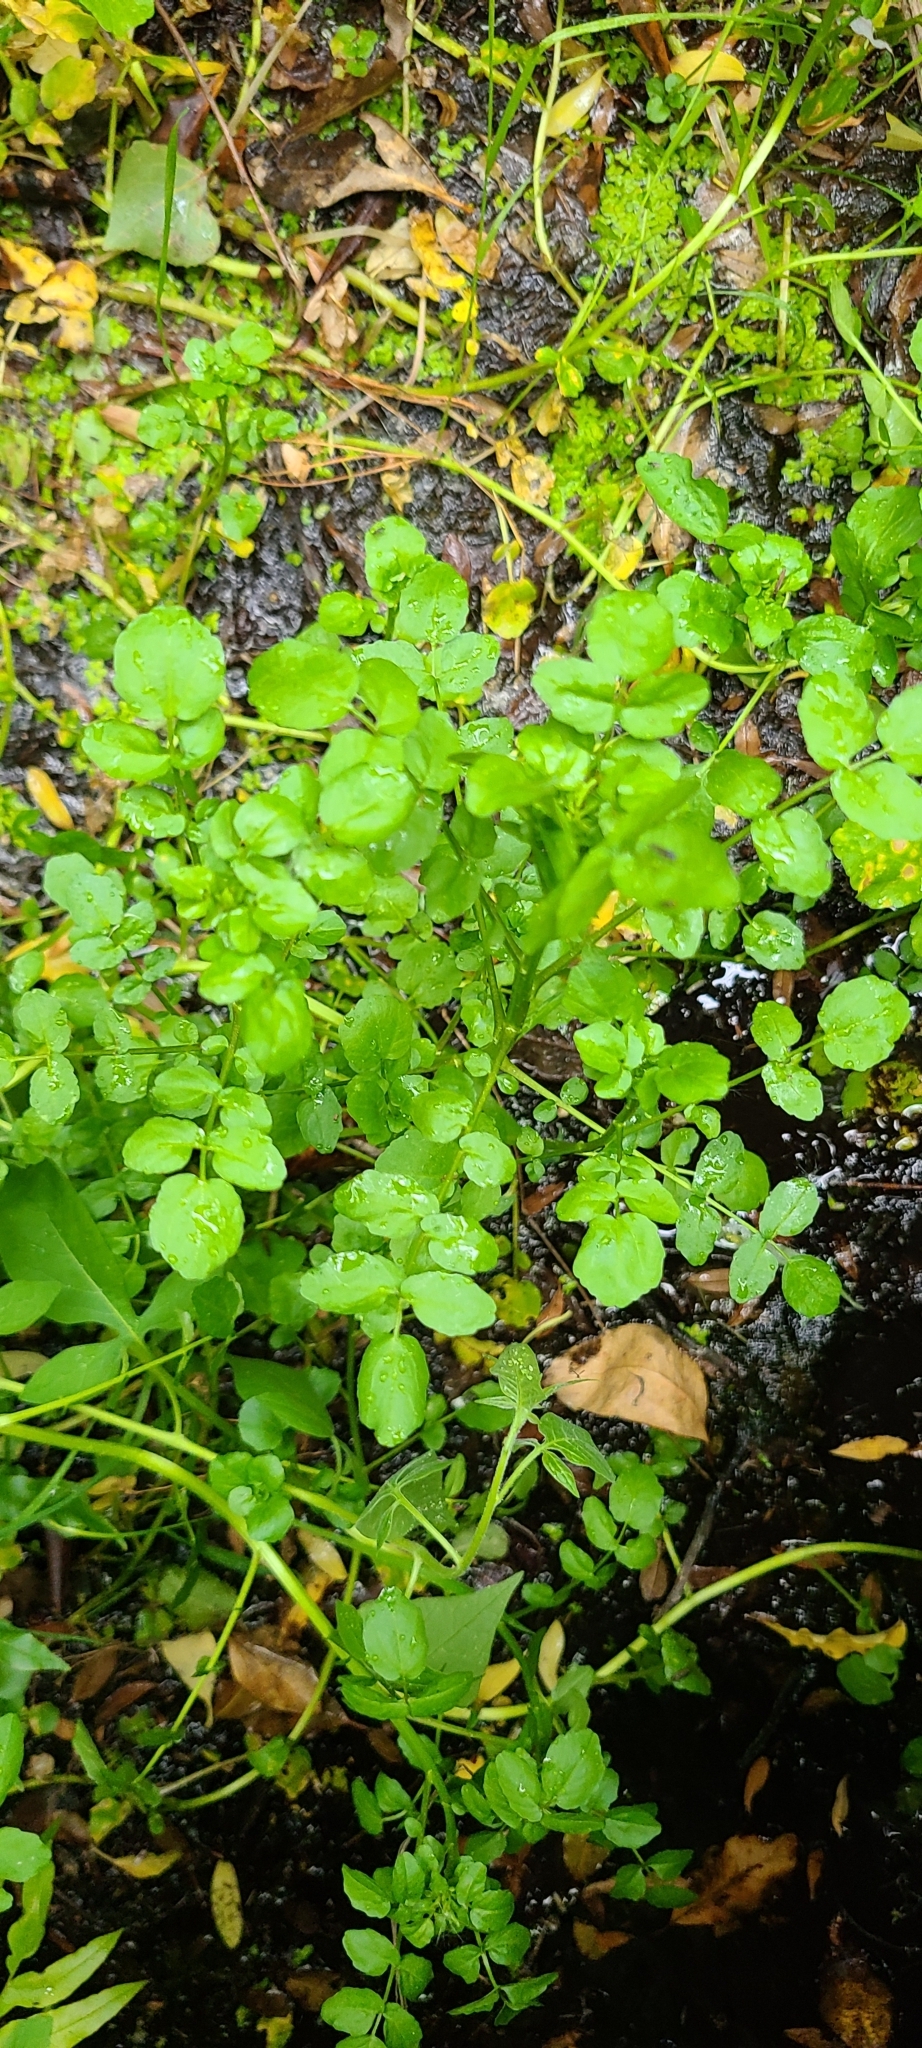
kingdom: Plantae
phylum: Tracheophyta
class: Magnoliopsida
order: Brassicales
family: Brassicaceae
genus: Nasturtium
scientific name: Nasturtium officinale
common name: Watercress
